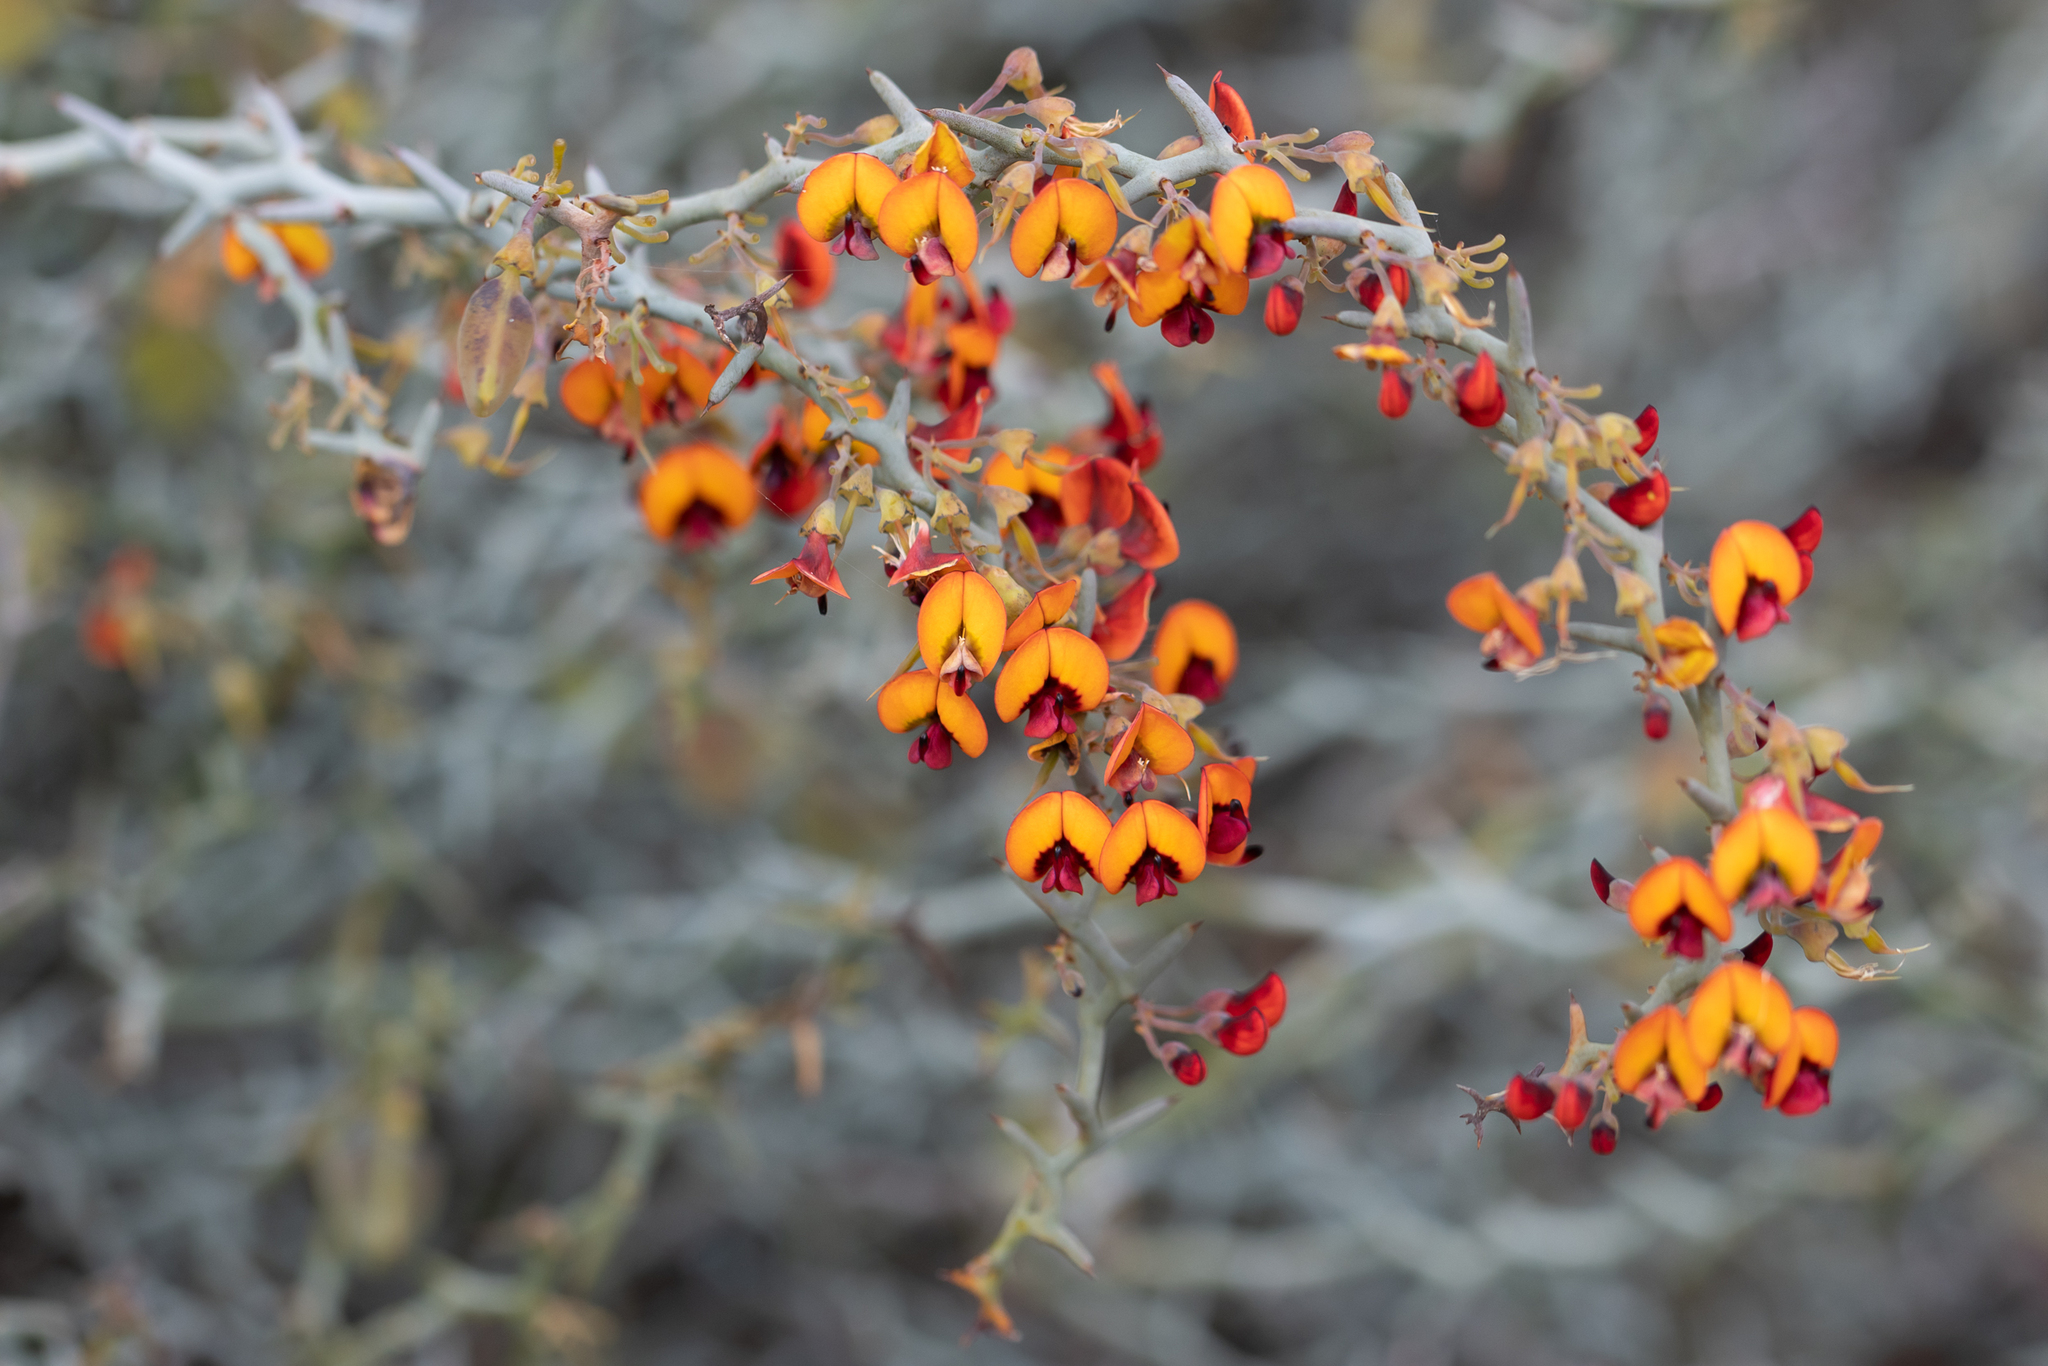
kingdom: Plantae
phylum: Tracheophyta
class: Magnoliopsida
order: Fabales
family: Fabaceae
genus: Daviesia
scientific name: Daviesia incrassata
